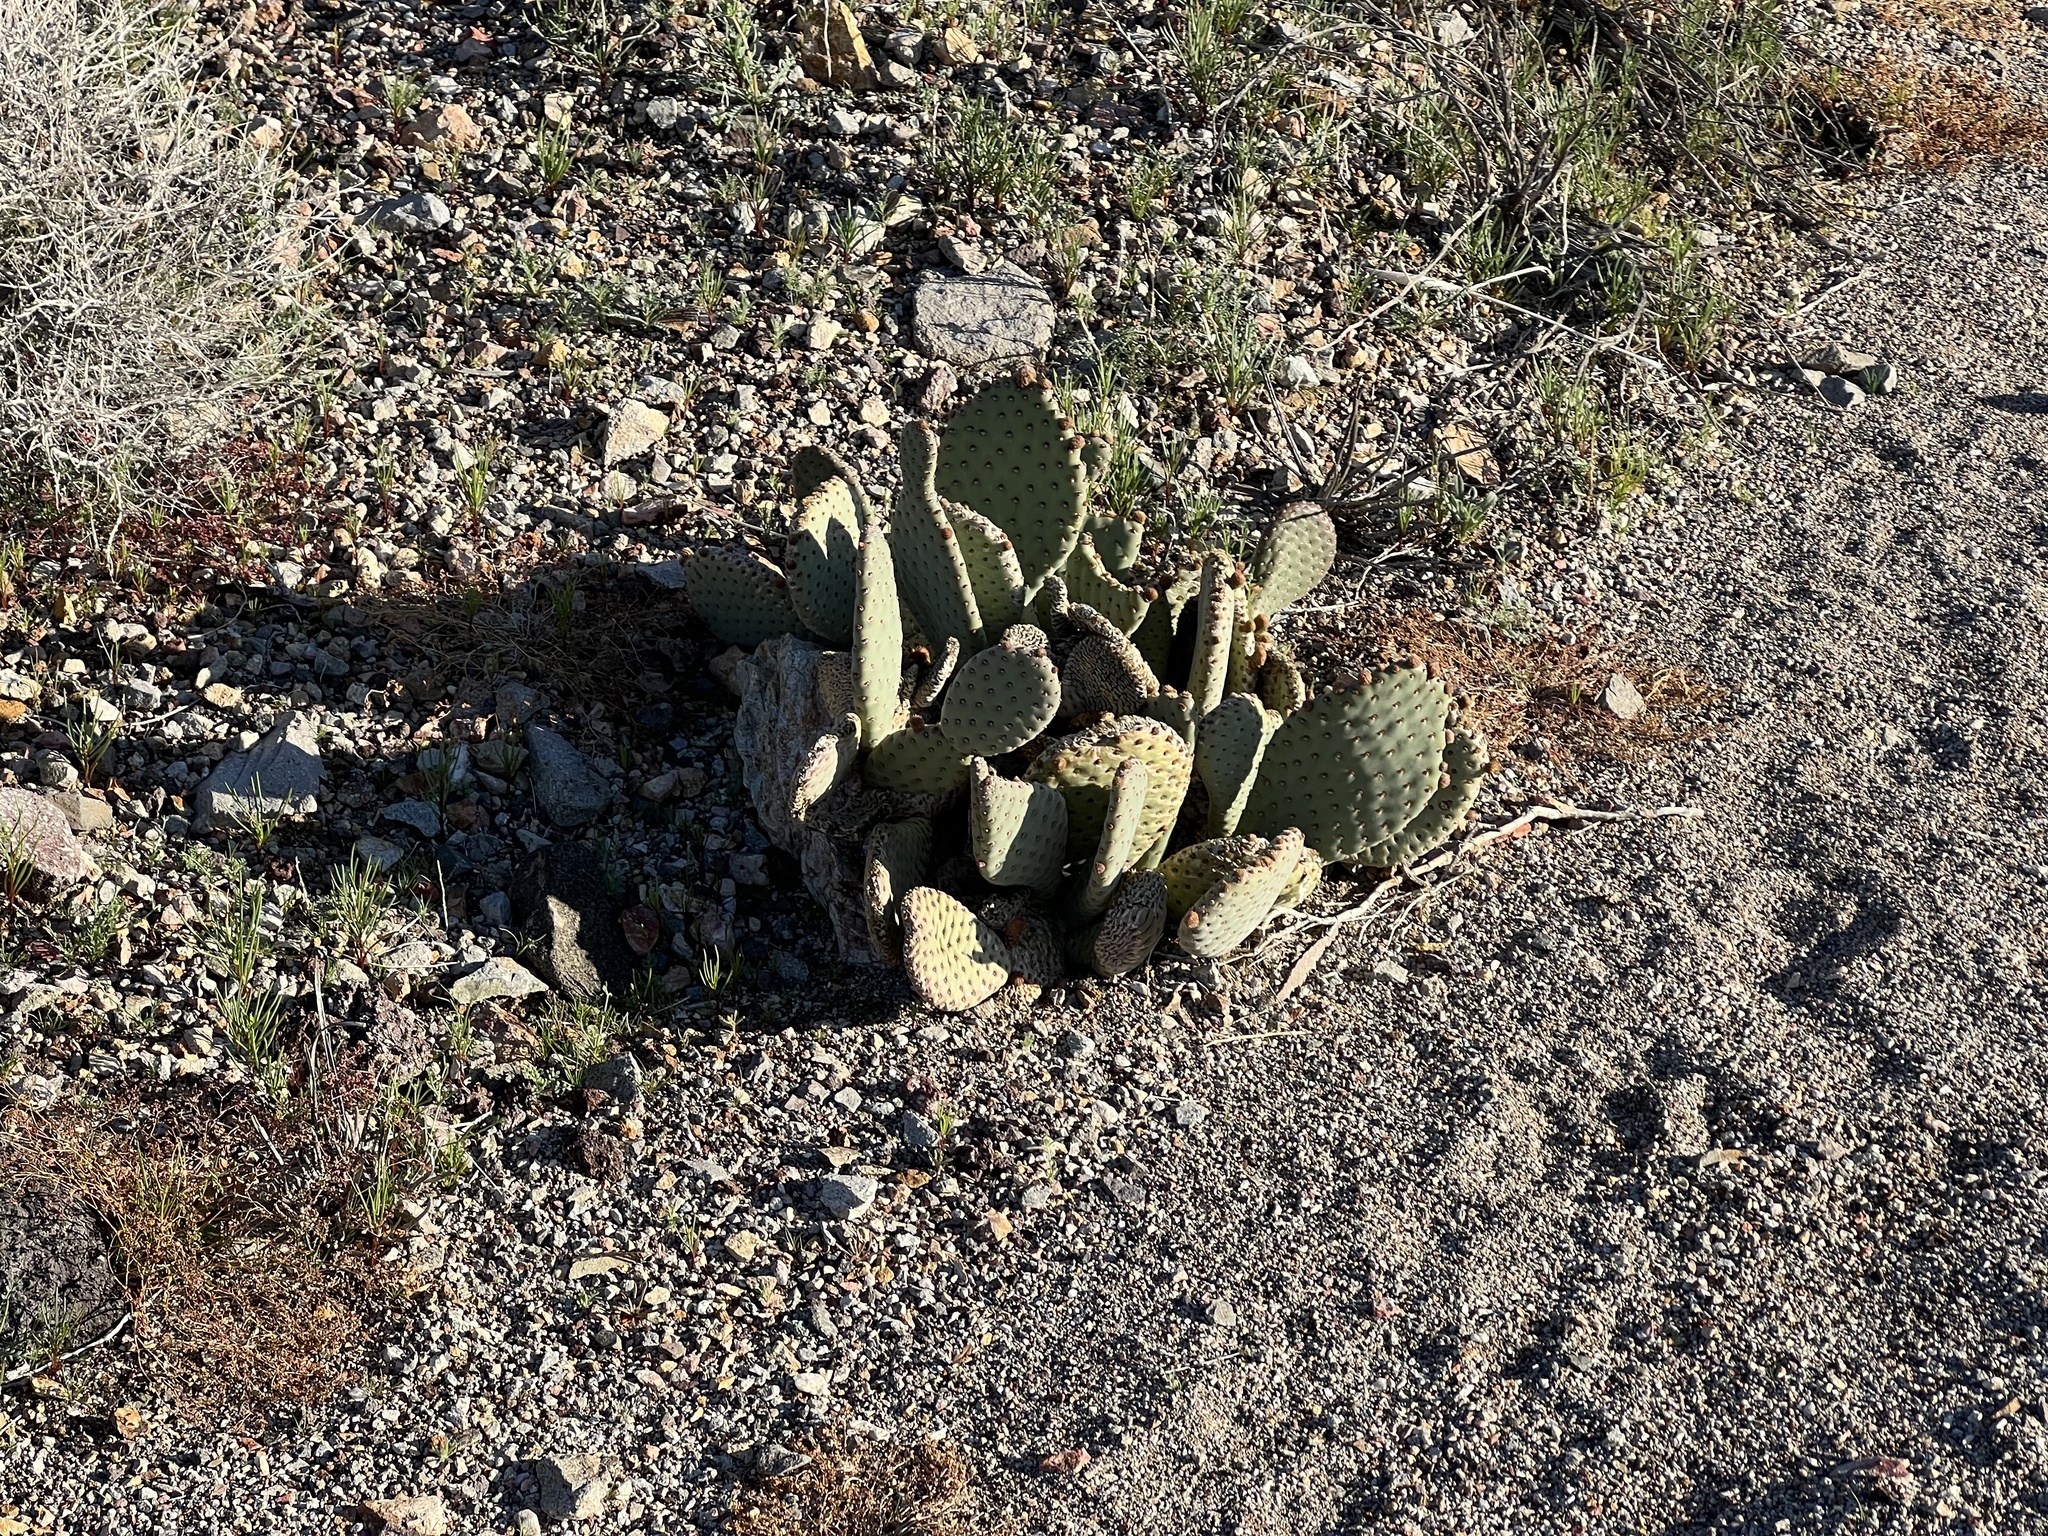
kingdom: Plantae
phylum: Tracheophyta
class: Magnoliopsida
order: Caryophyllales
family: Cactaceae
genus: Opuntia
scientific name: Opuntia basilaris
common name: Beavertail prickly-pear
